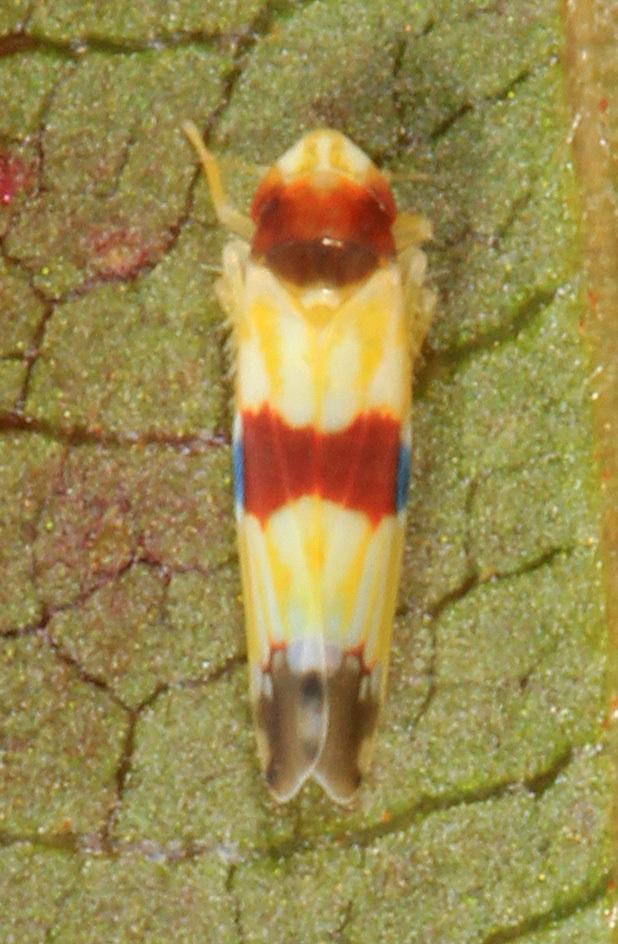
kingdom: Animalia
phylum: Arthropoda
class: Insecta
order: Hemiptera
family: Cicadellidae
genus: Erythroneura
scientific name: Erythroneura diva
